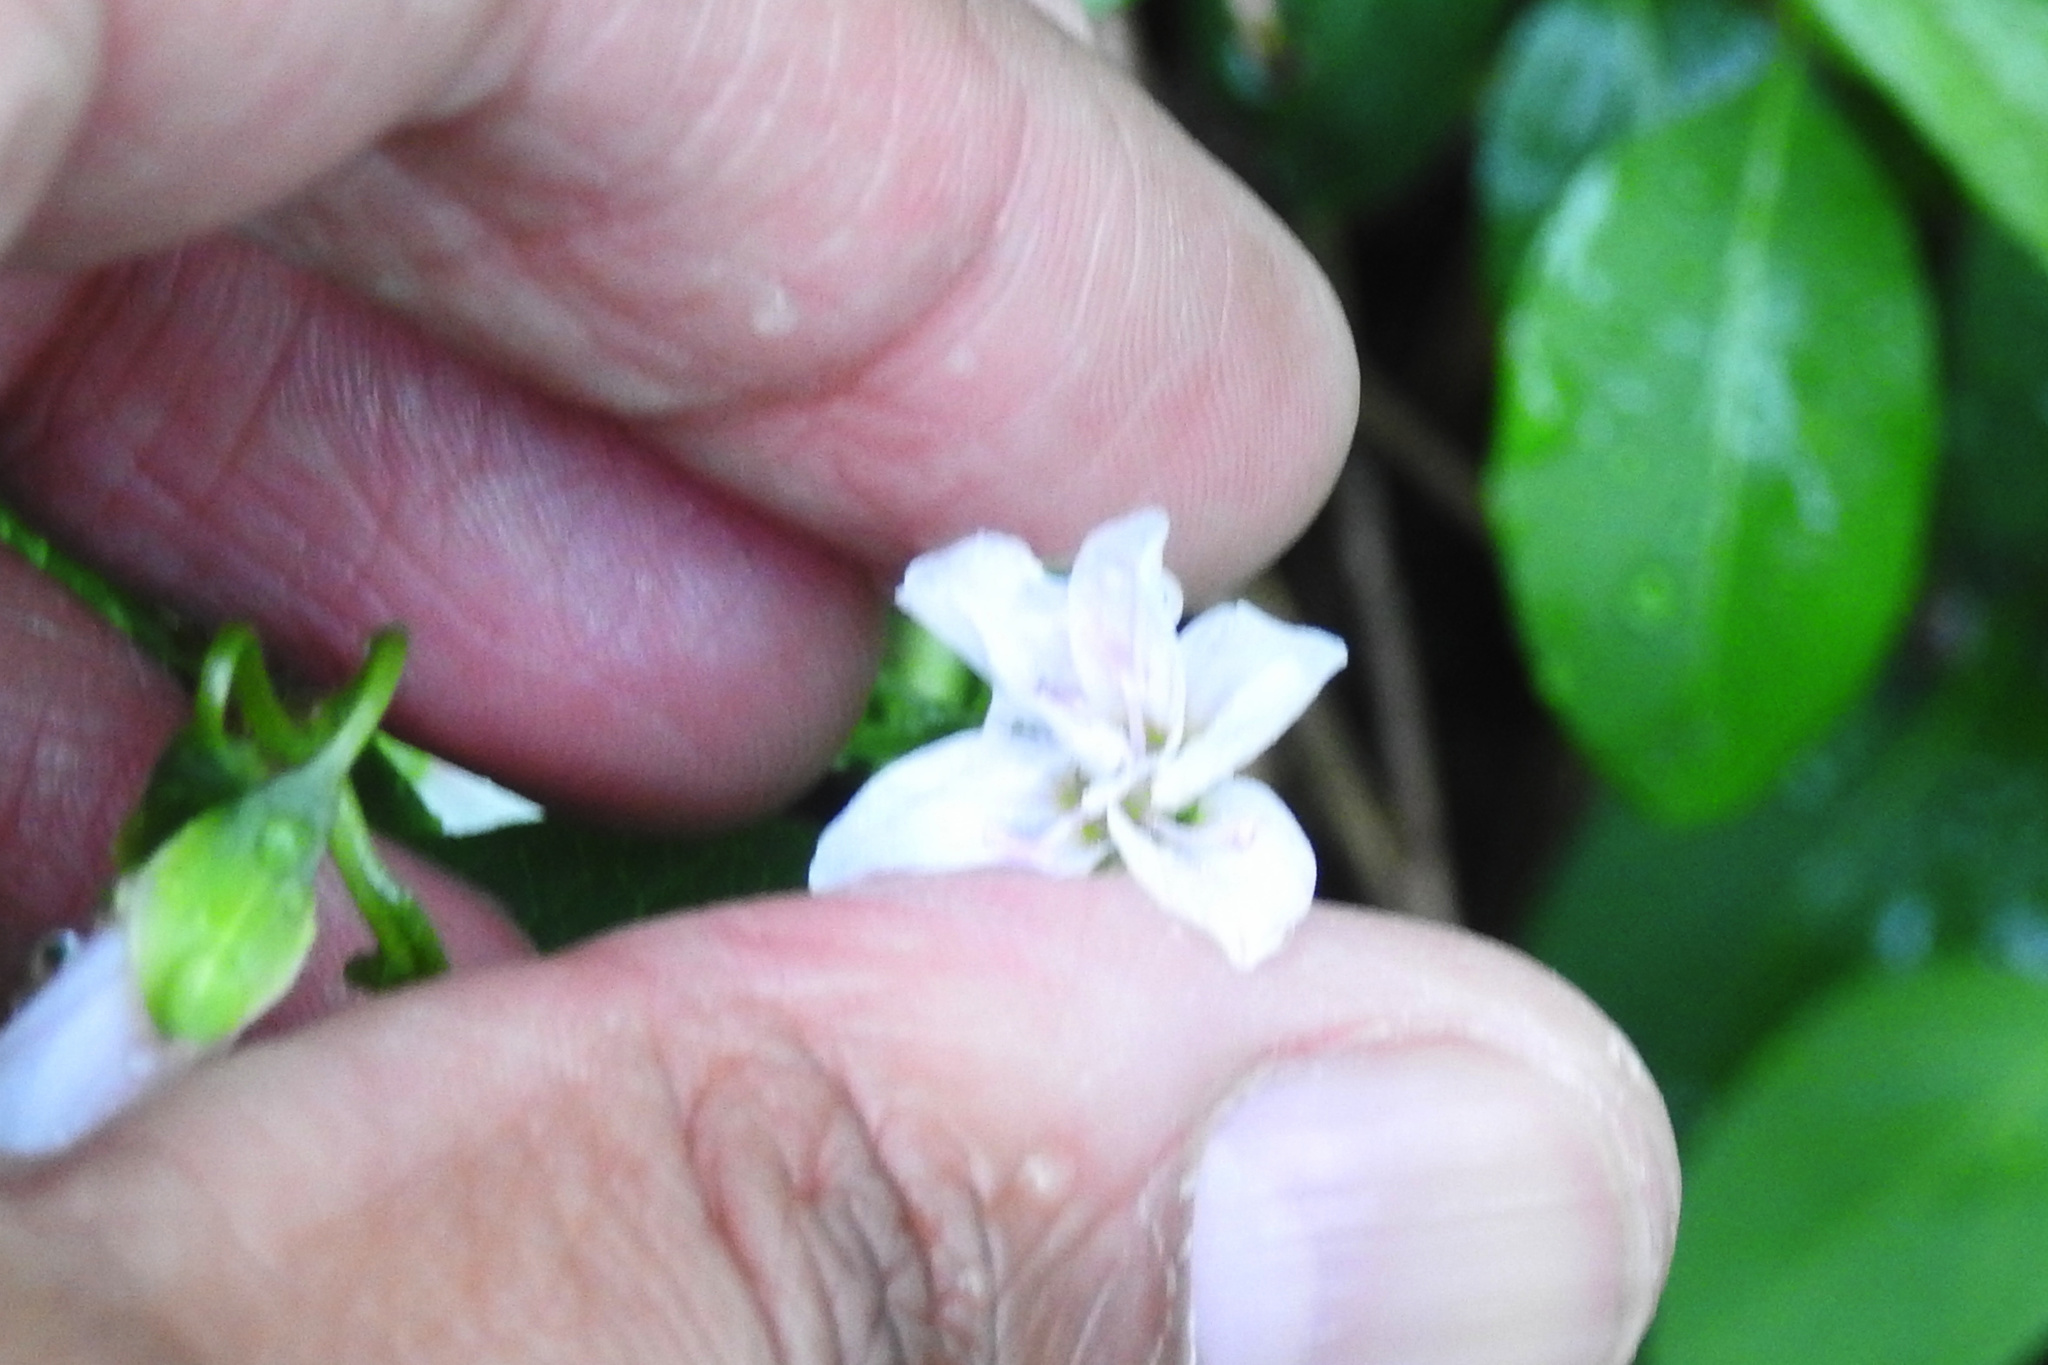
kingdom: Plantae
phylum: Tracheophyta
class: Magnoliopsida
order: Caryophyllales
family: Montiaceae
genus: Claytonia
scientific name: Claytonia virginica
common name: Virginia springbeauty
